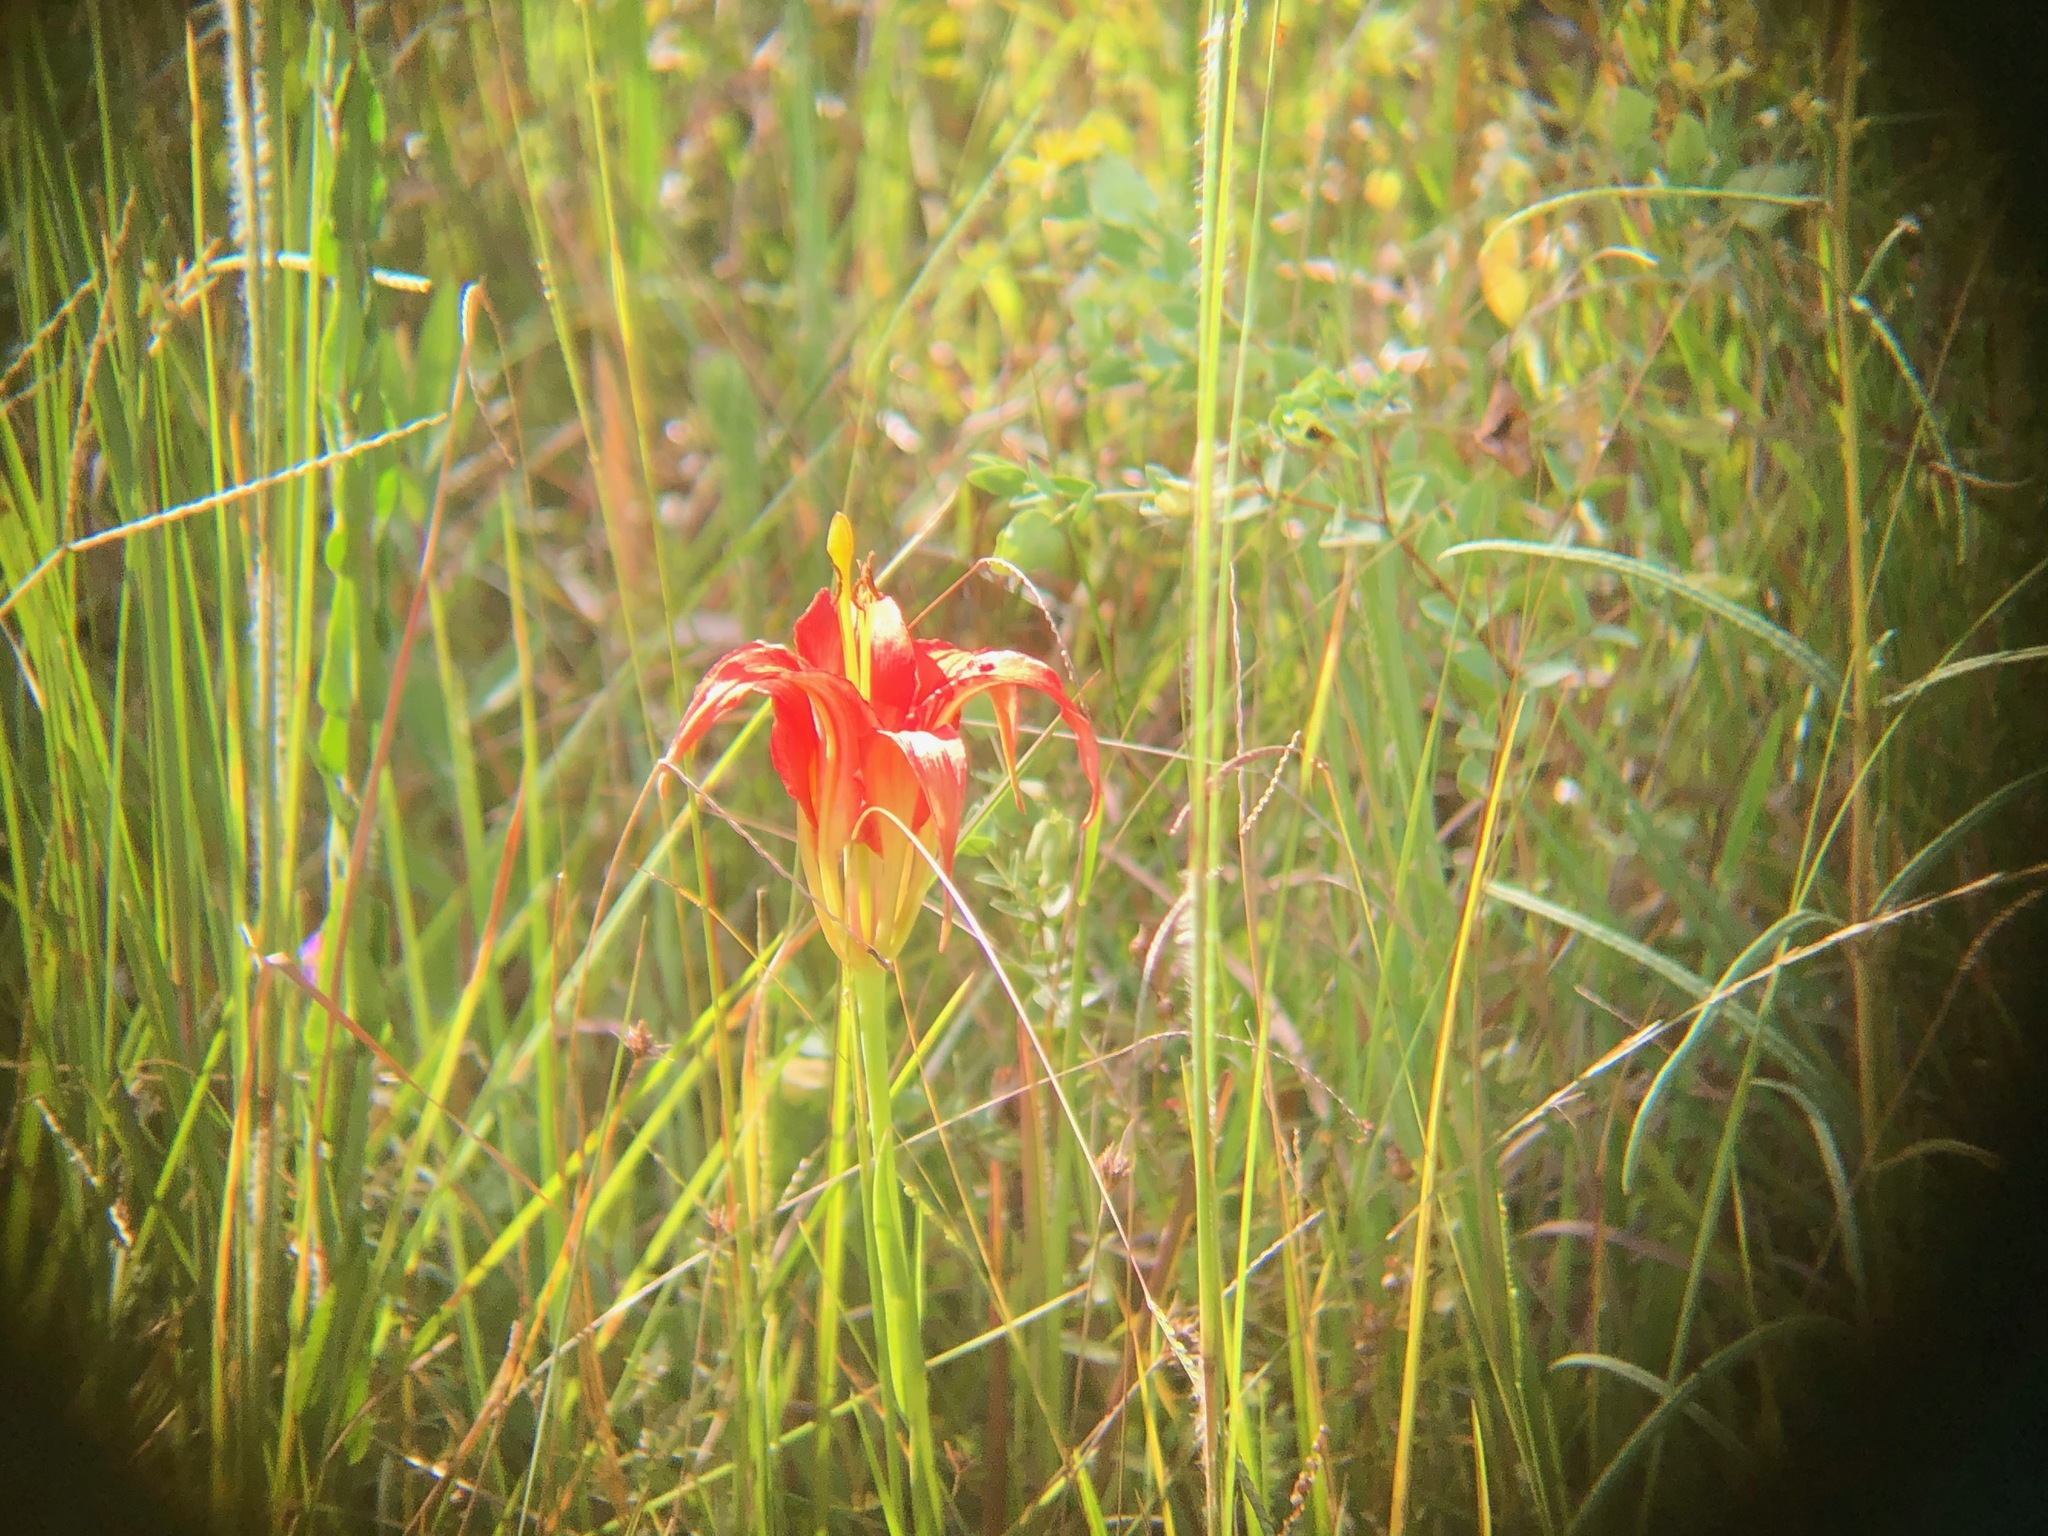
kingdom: Plantae
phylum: Tracheophyta
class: Liliopsida
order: Liliales
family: Liliaceae
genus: Lilium
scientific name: Lilium catesbaei
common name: Catesby's lily
